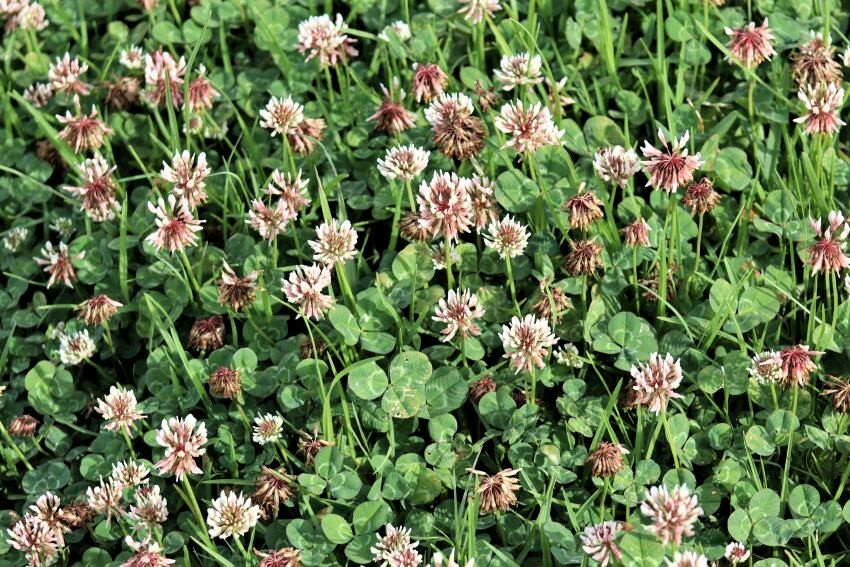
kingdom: Plantae
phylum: Tracheophyta
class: Magnoliopsida
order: Fabales
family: Fabaceae
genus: Trifolium
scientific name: Trifolium repens
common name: White clover
